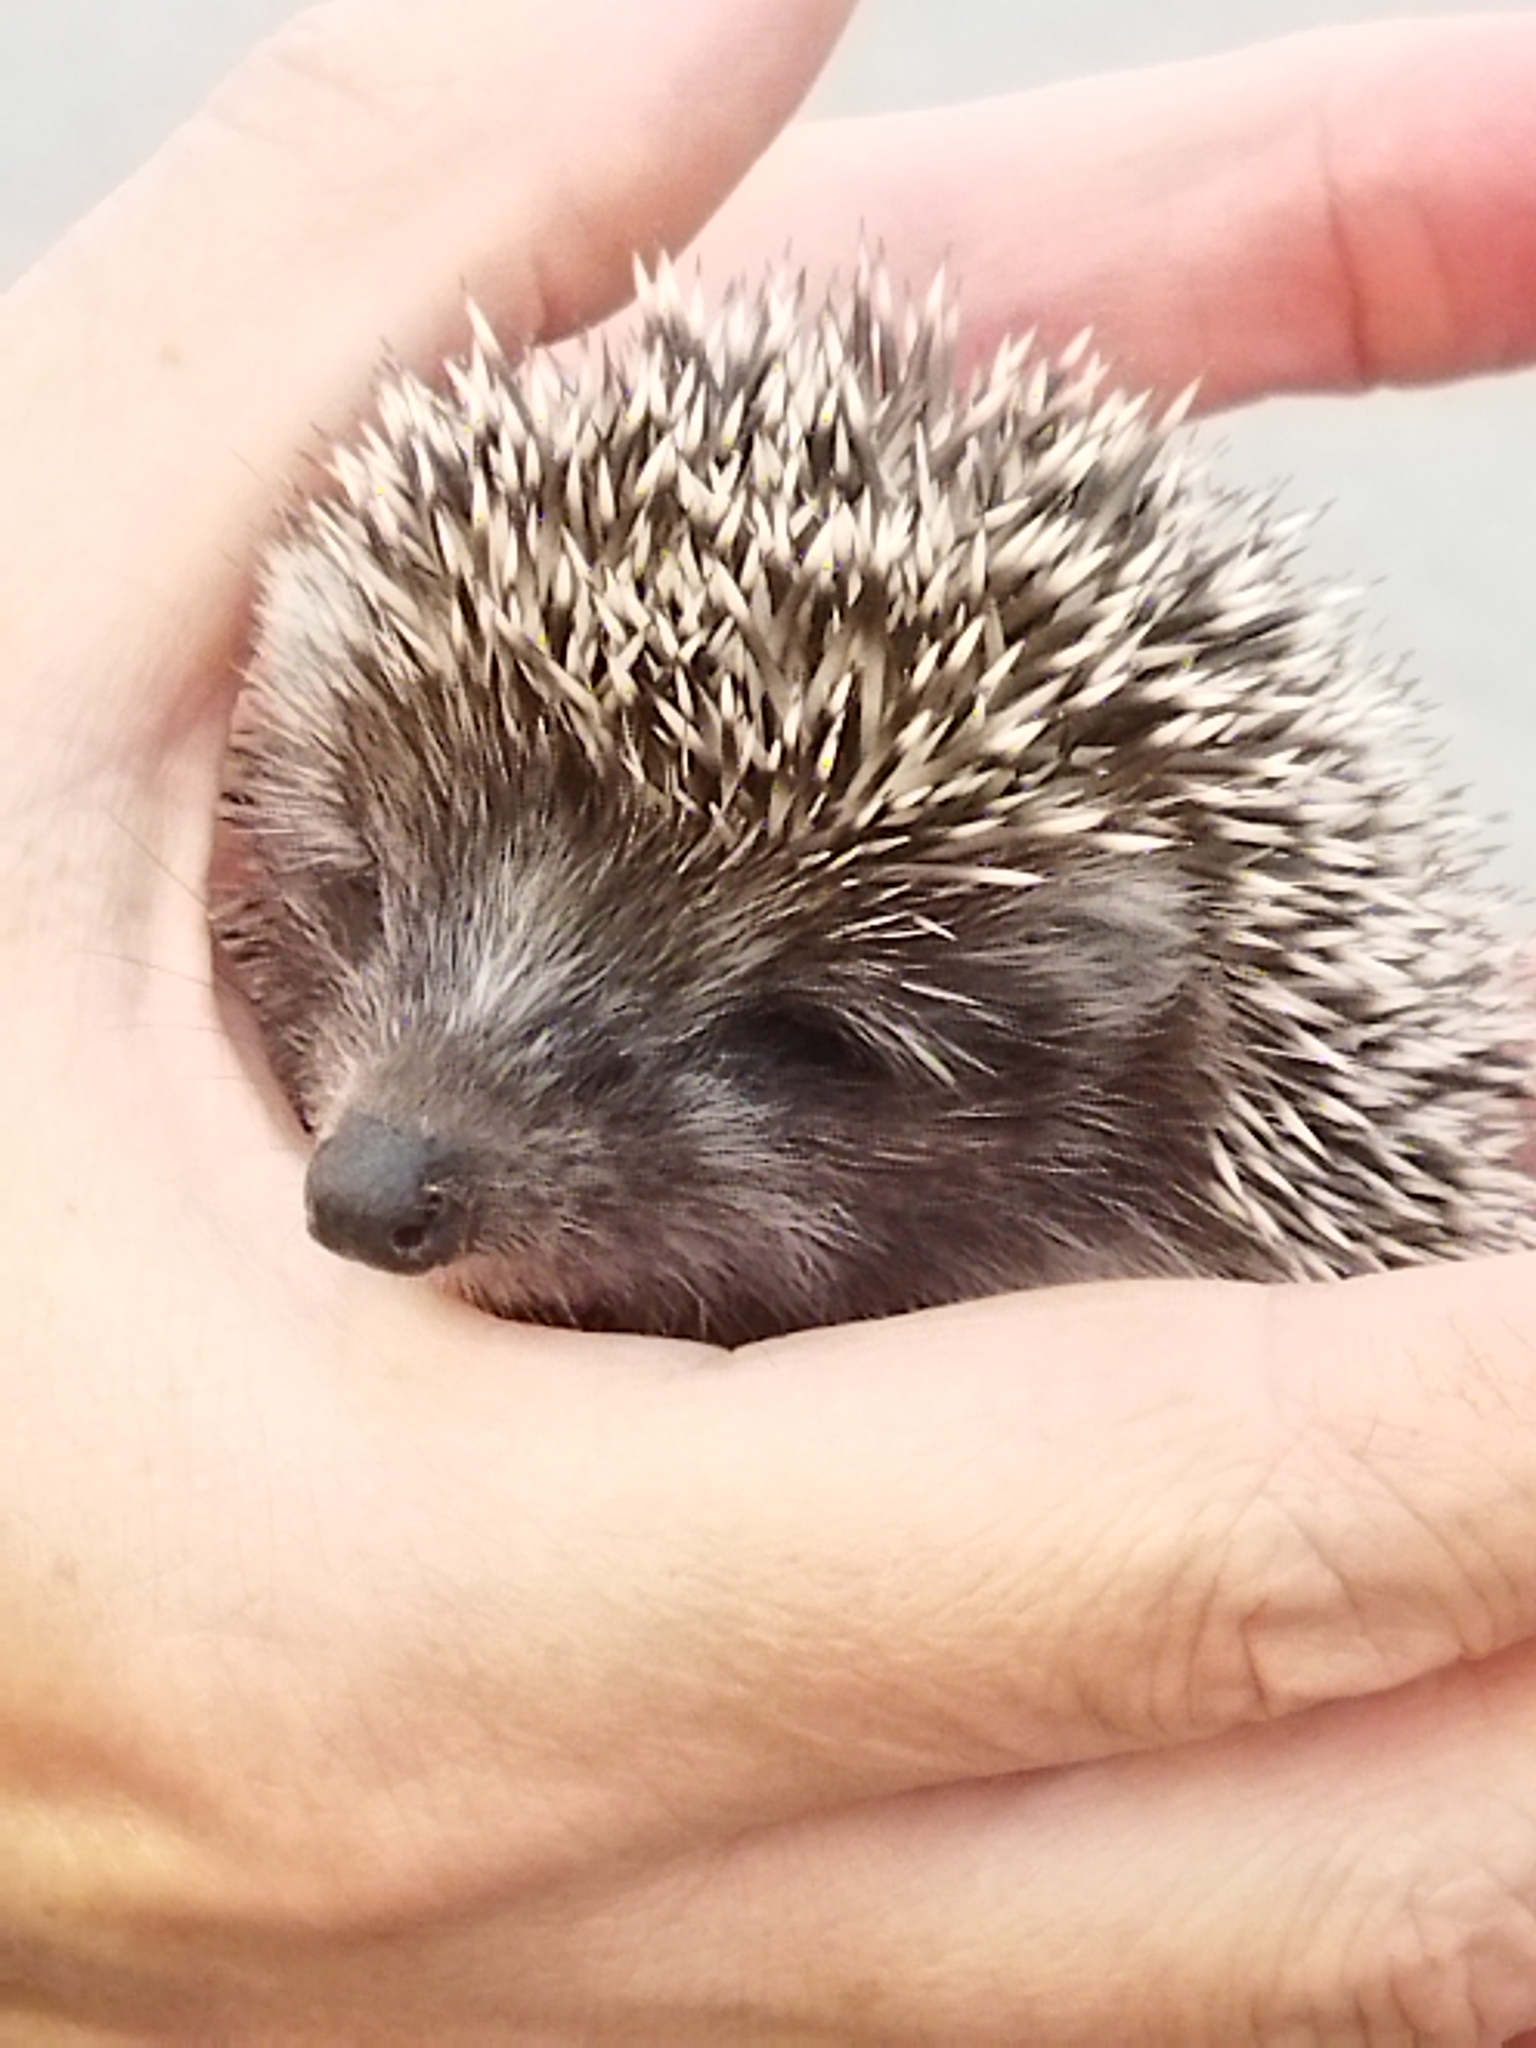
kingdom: Animalia
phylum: Chordata
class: Mammalia
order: Erinaceomorpha
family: Erinaceidae
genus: Erinaceus
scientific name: Erinaceus roumanicus
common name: Northern white-breasted hedgehog
